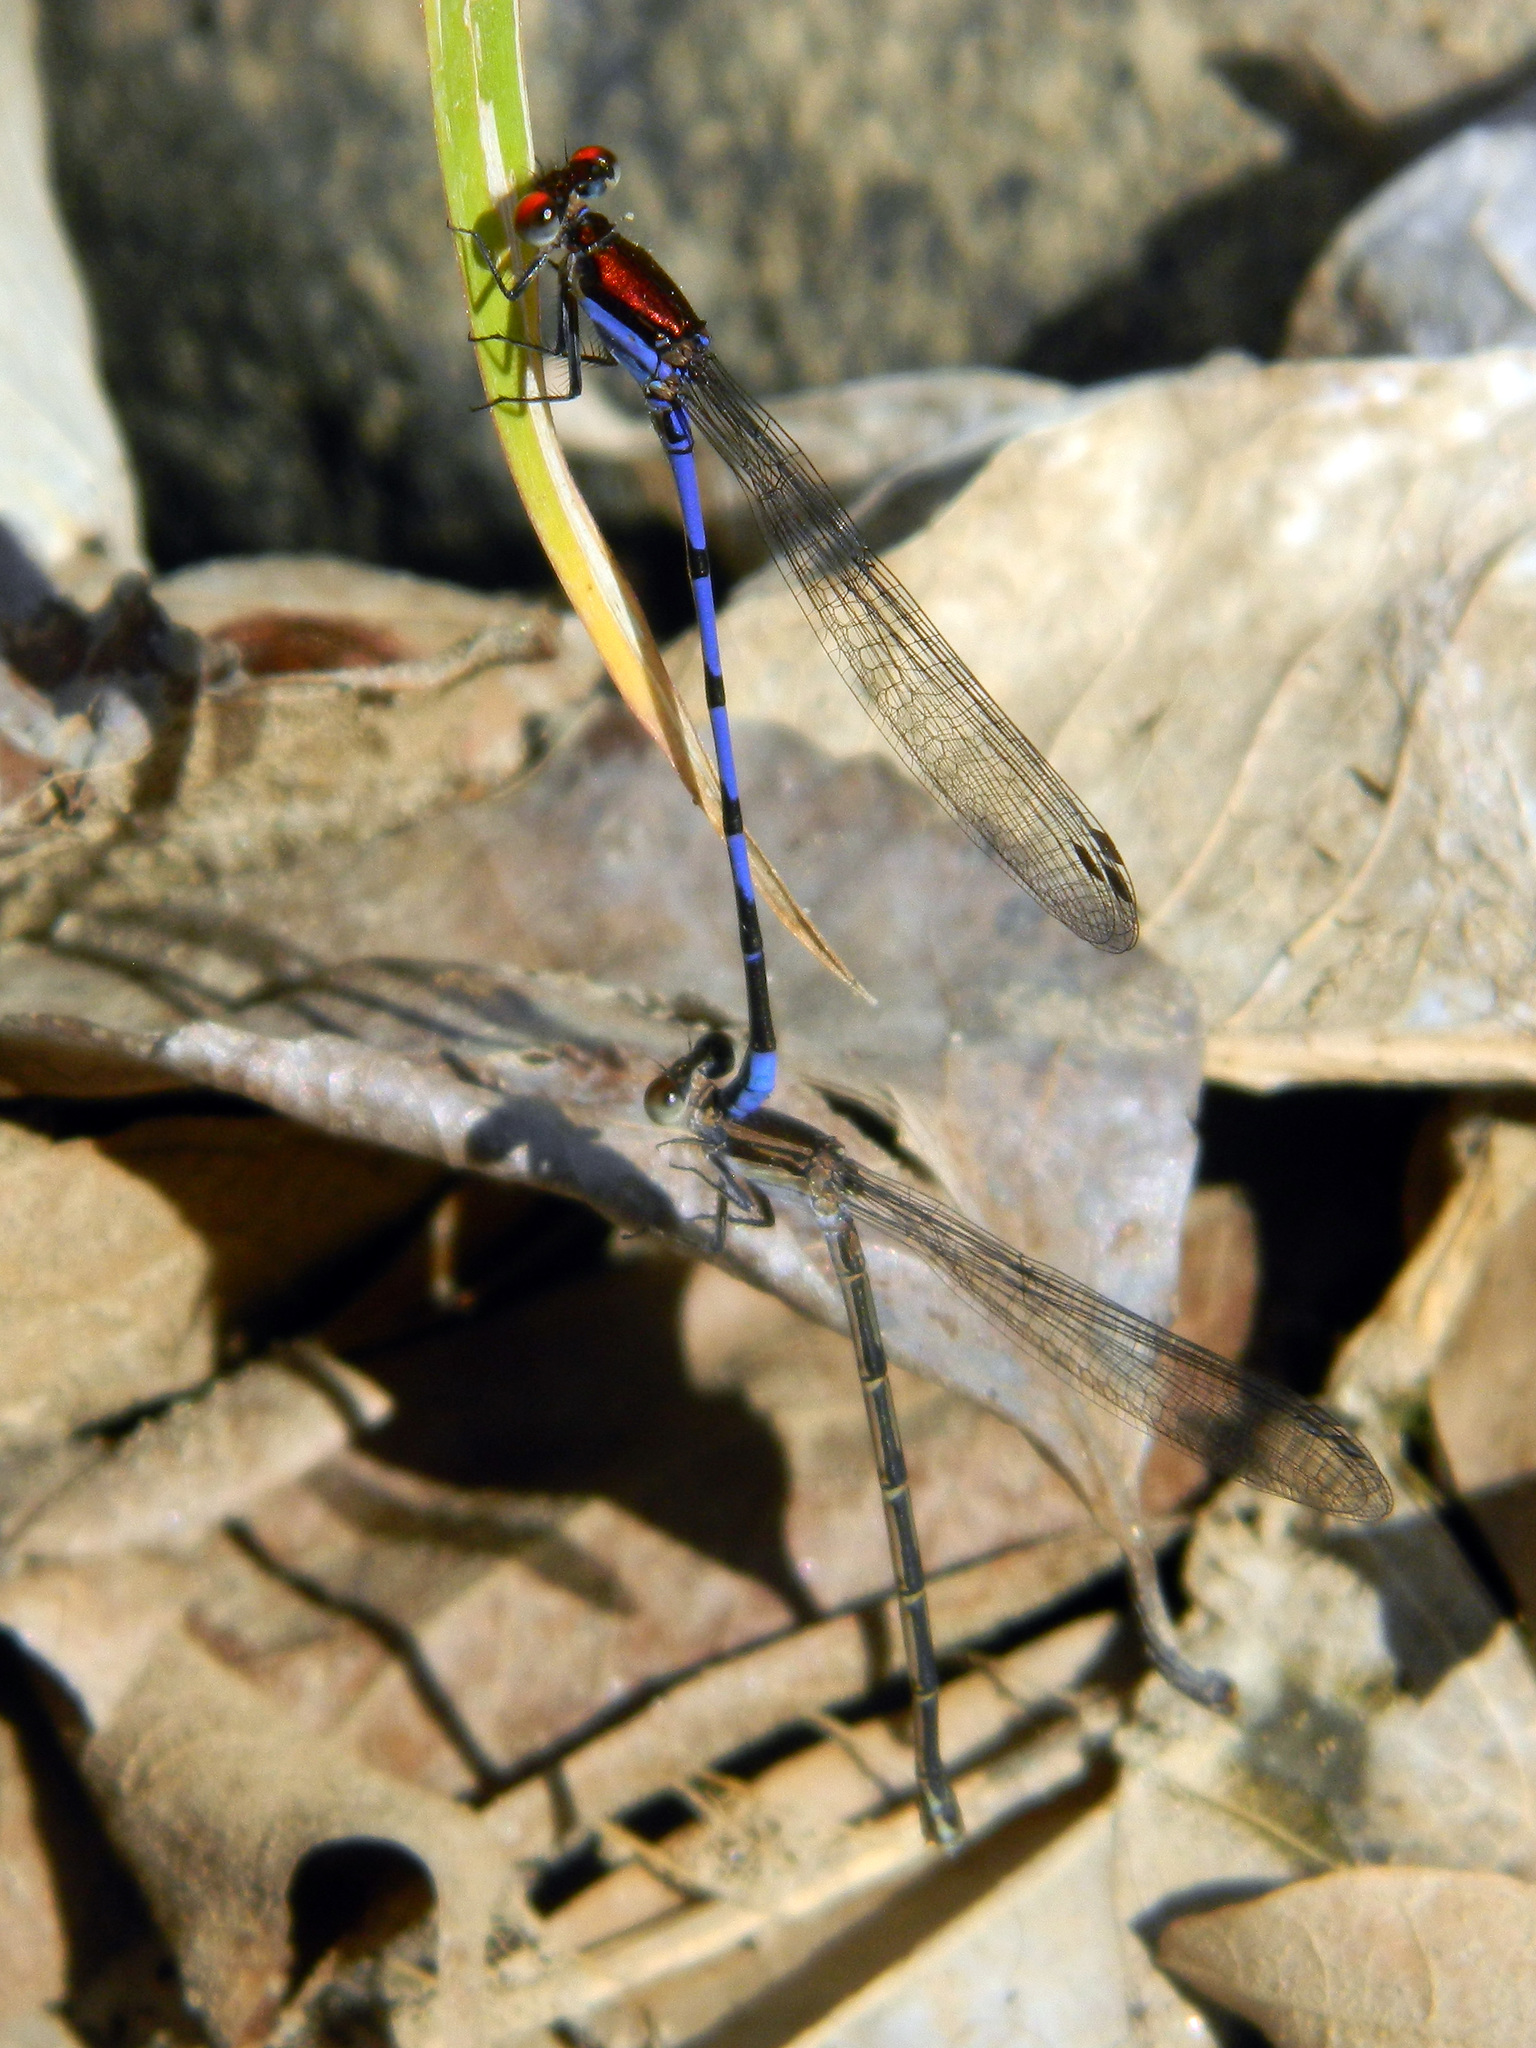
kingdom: Animalia
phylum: Arthropoda
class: Insecta
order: Odonata
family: Coenagrionidae
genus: Argia
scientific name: Argia oenea
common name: Fiery-eyed dancer
